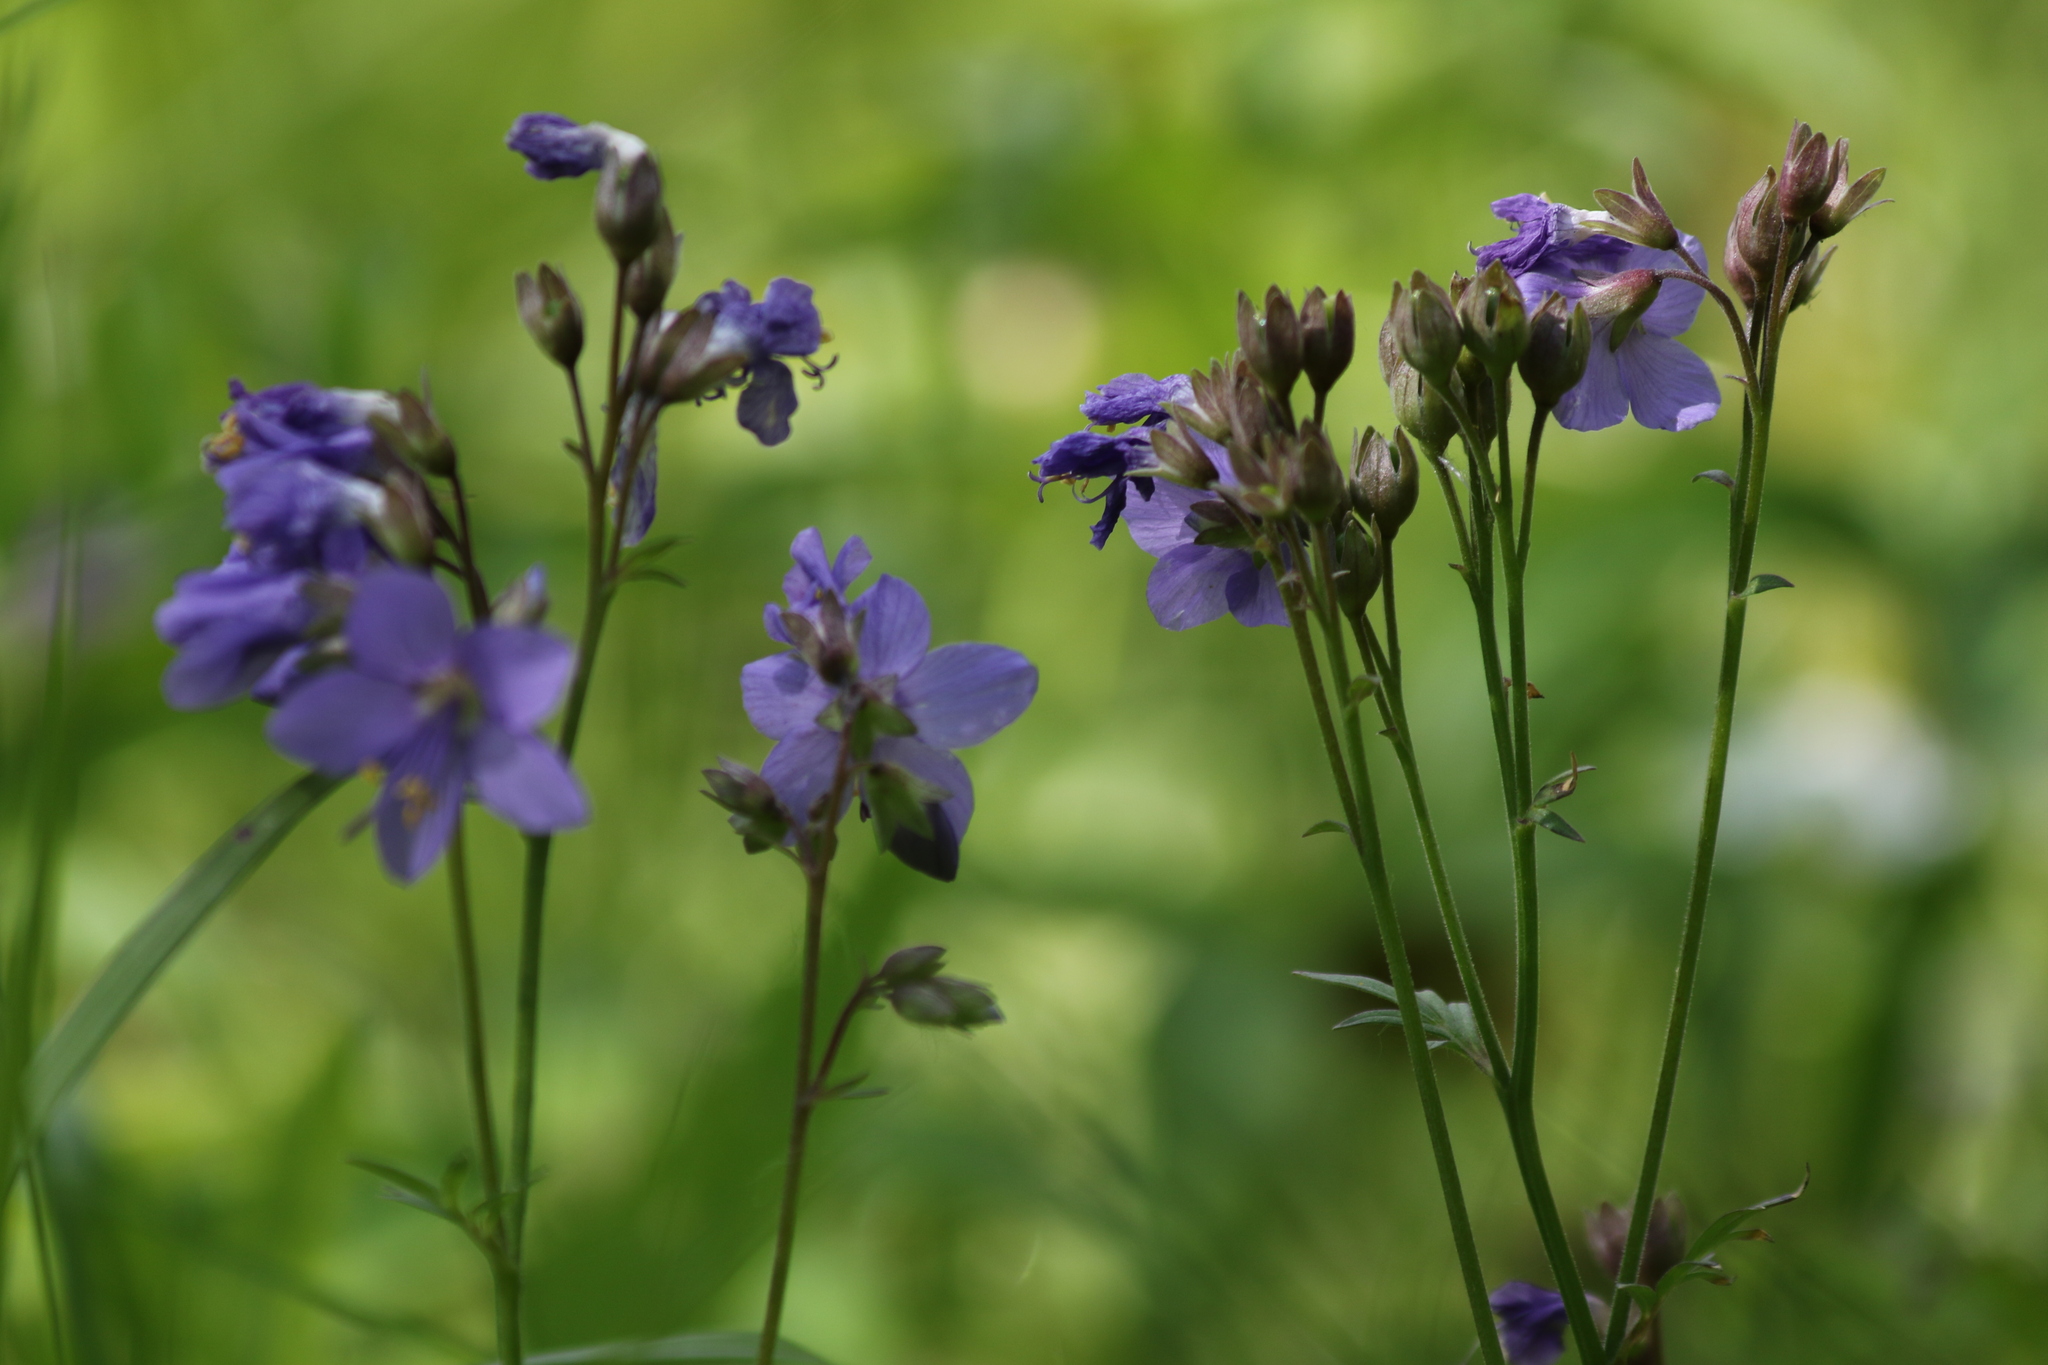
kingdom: Plantae
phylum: Tracheophyta
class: Magnoliopsida
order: Ericales
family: Polemoniaceae
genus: Polemonium
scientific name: Polemonium caeruleum
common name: Jacob's-ladder
